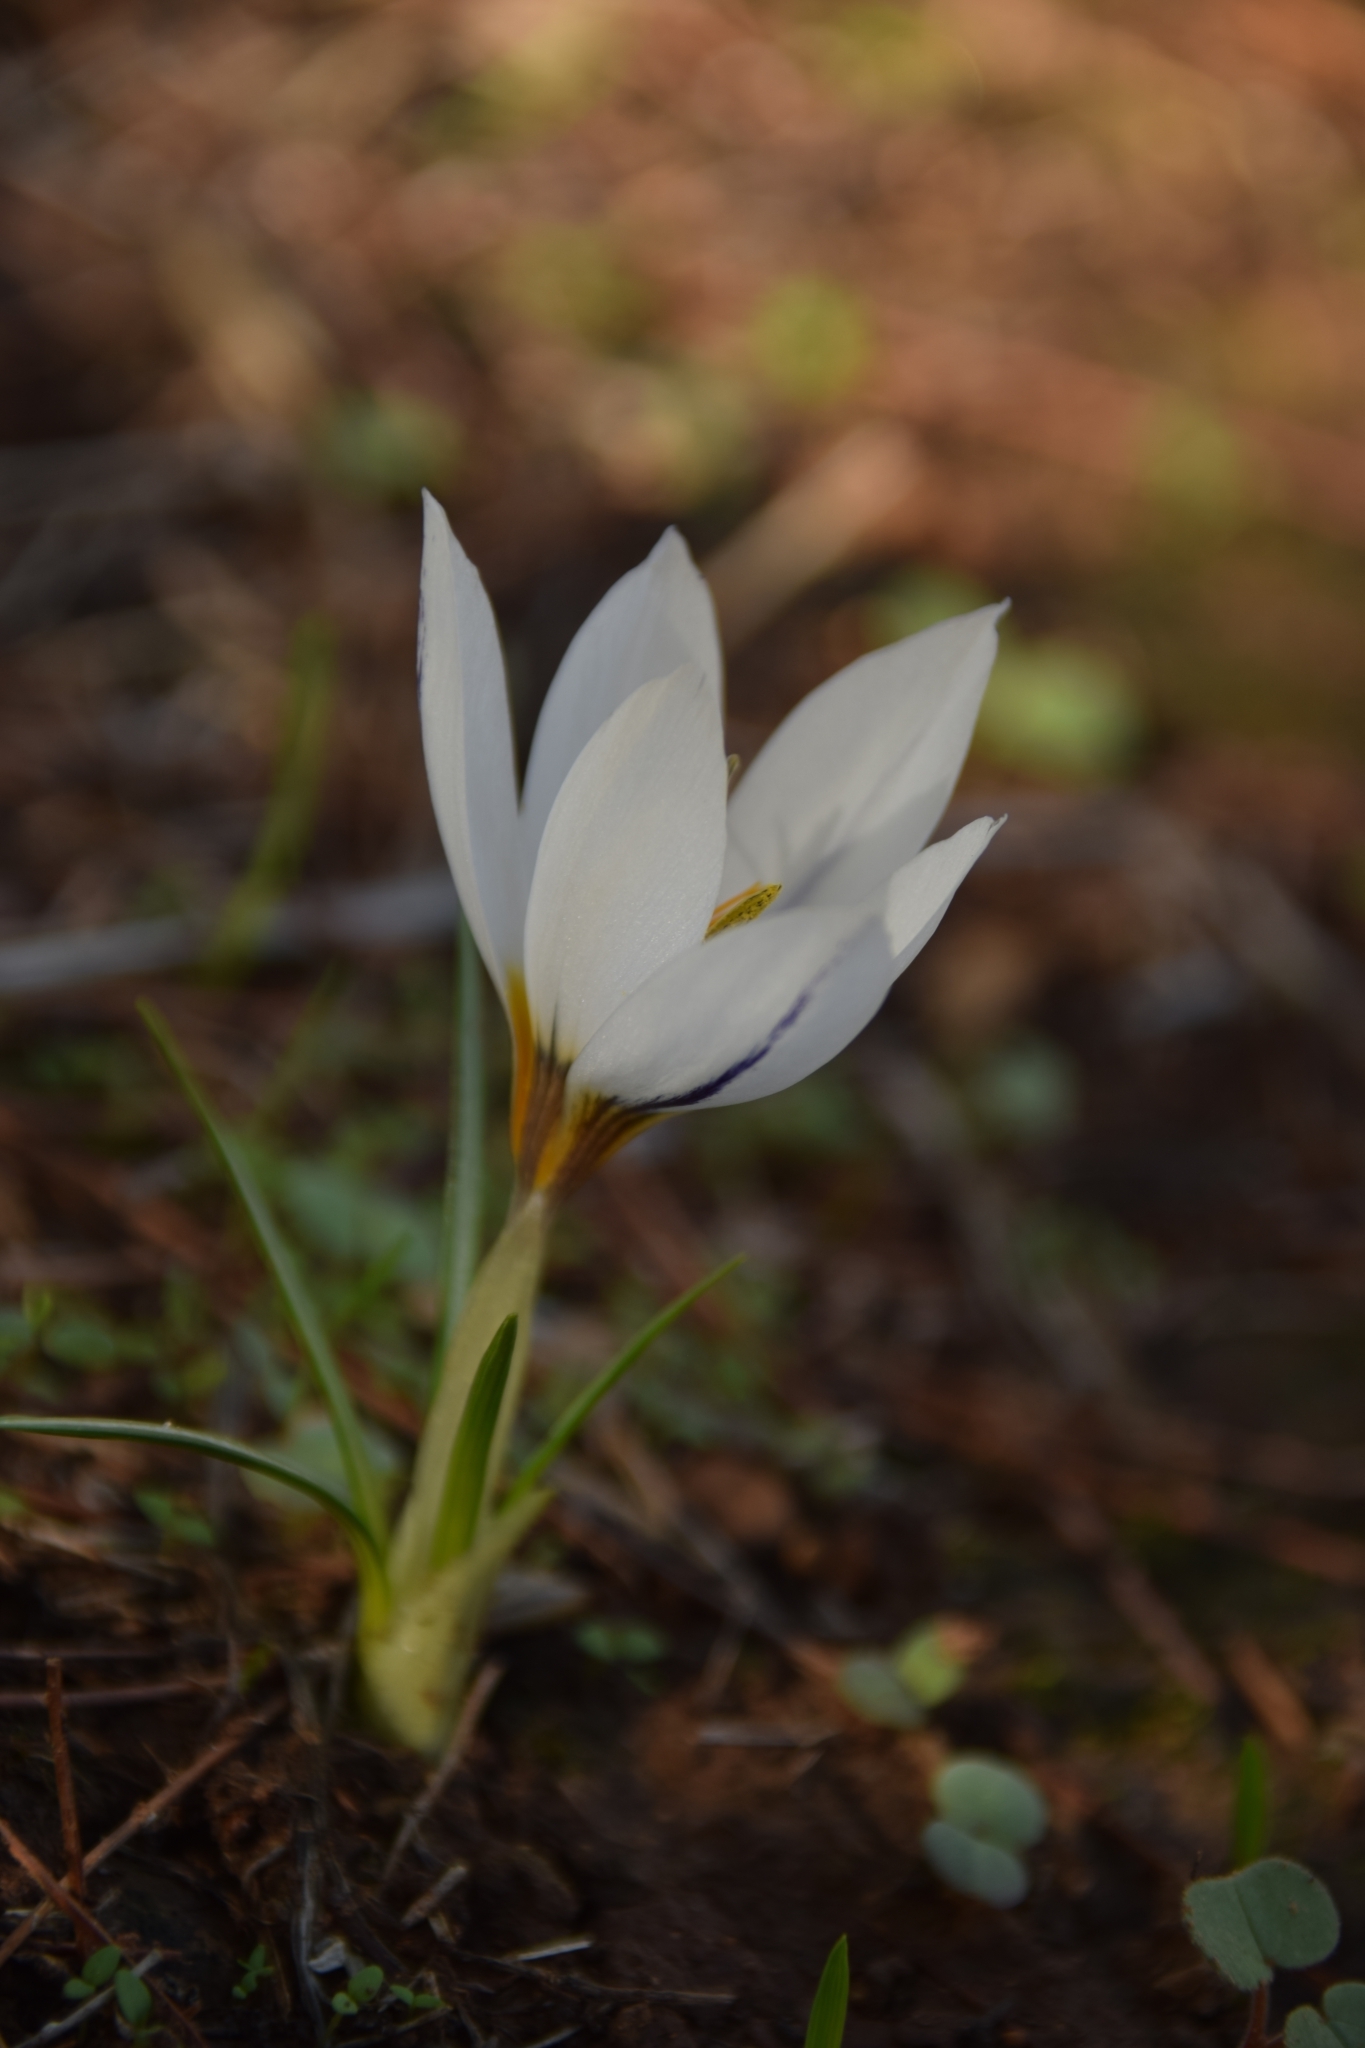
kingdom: Plantae
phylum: Tracheophyta
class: Liliopsida
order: Asparagales
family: Iridaceae
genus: Crocus
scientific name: Crocus hyemalis
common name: Winter crocus
